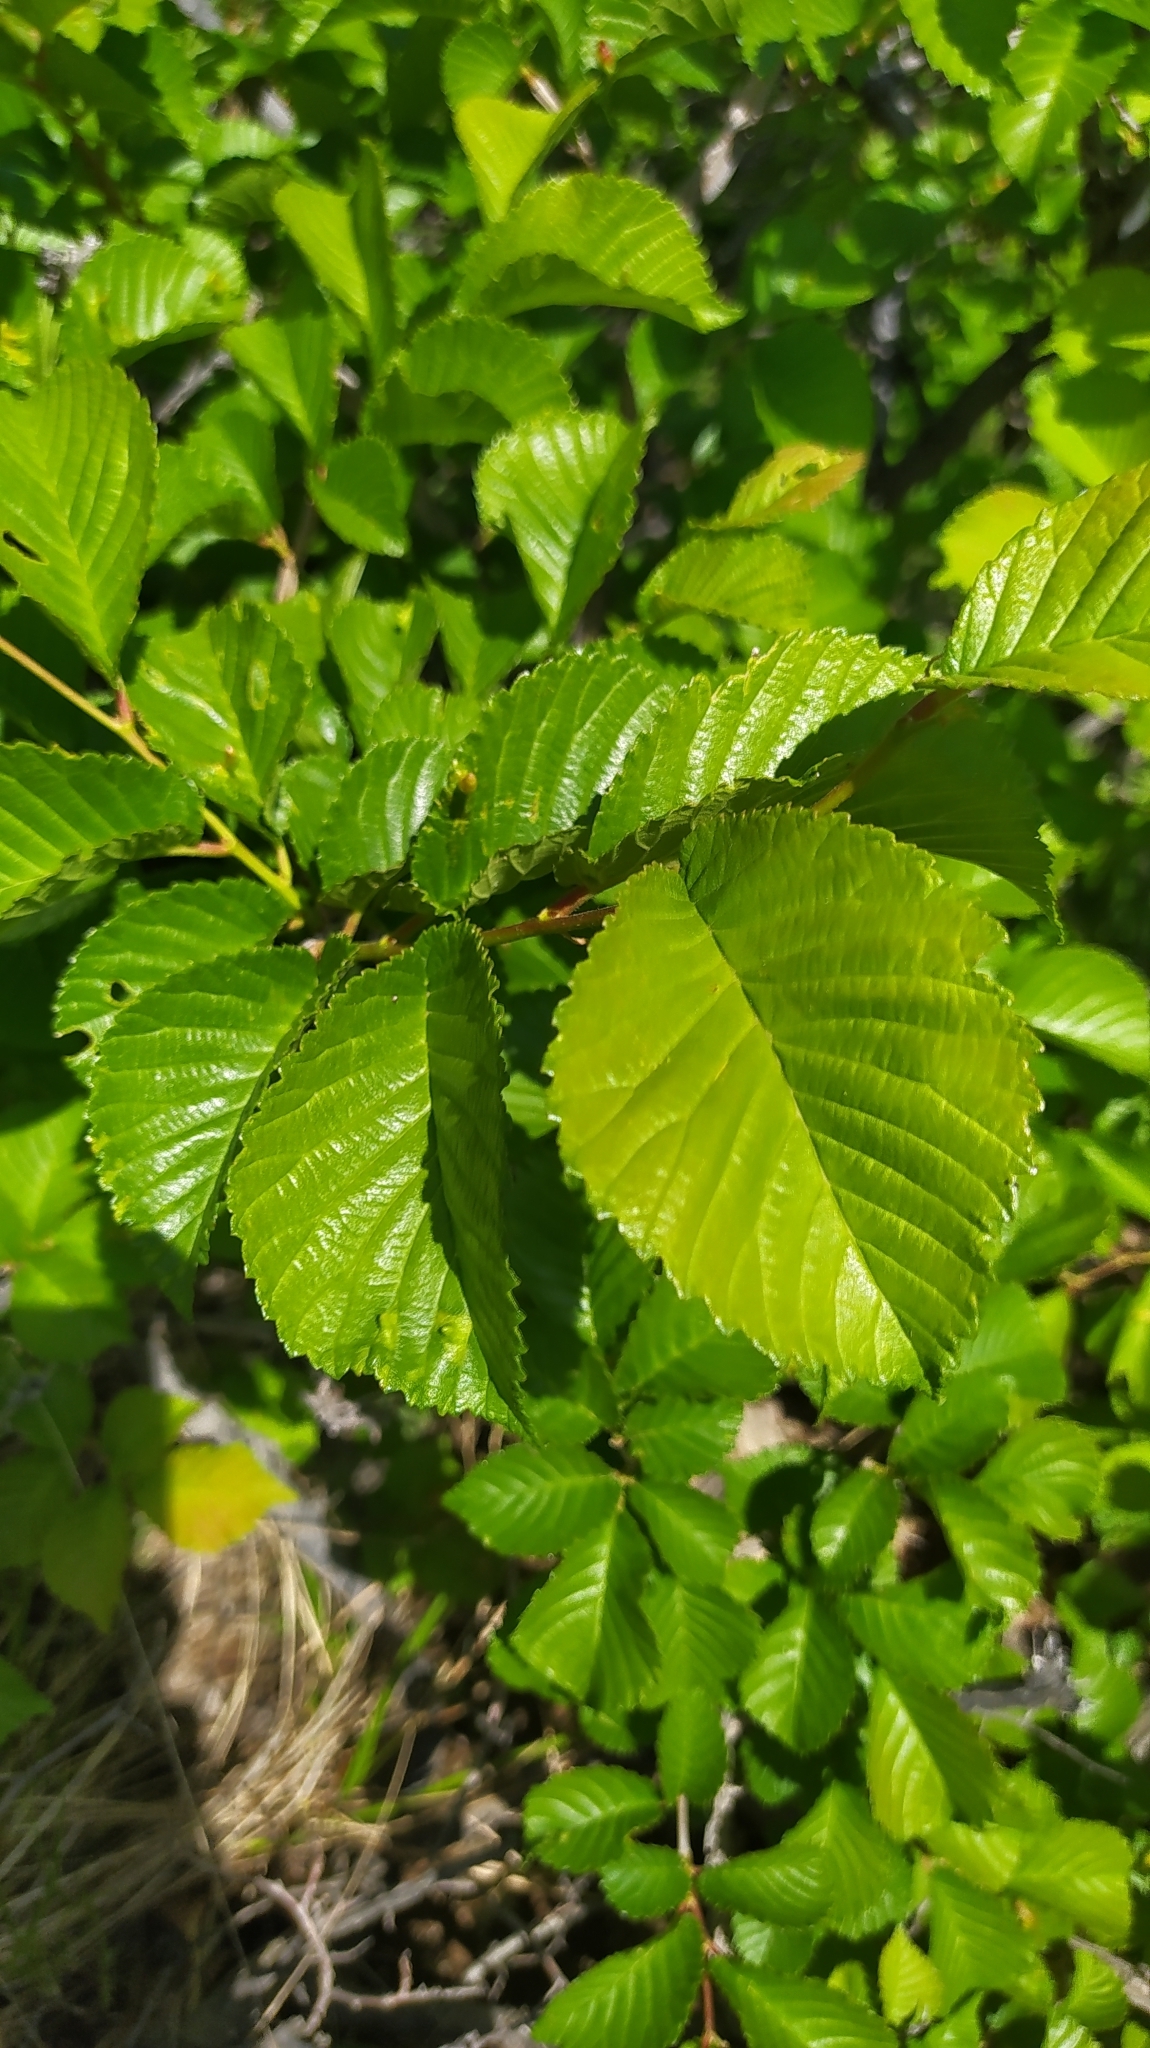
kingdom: Plantae
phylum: Tracheophyta
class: Magnoliopsida
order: Rosales
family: Ulmaceae
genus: Ulmus
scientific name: Ulmus macrocarpa
